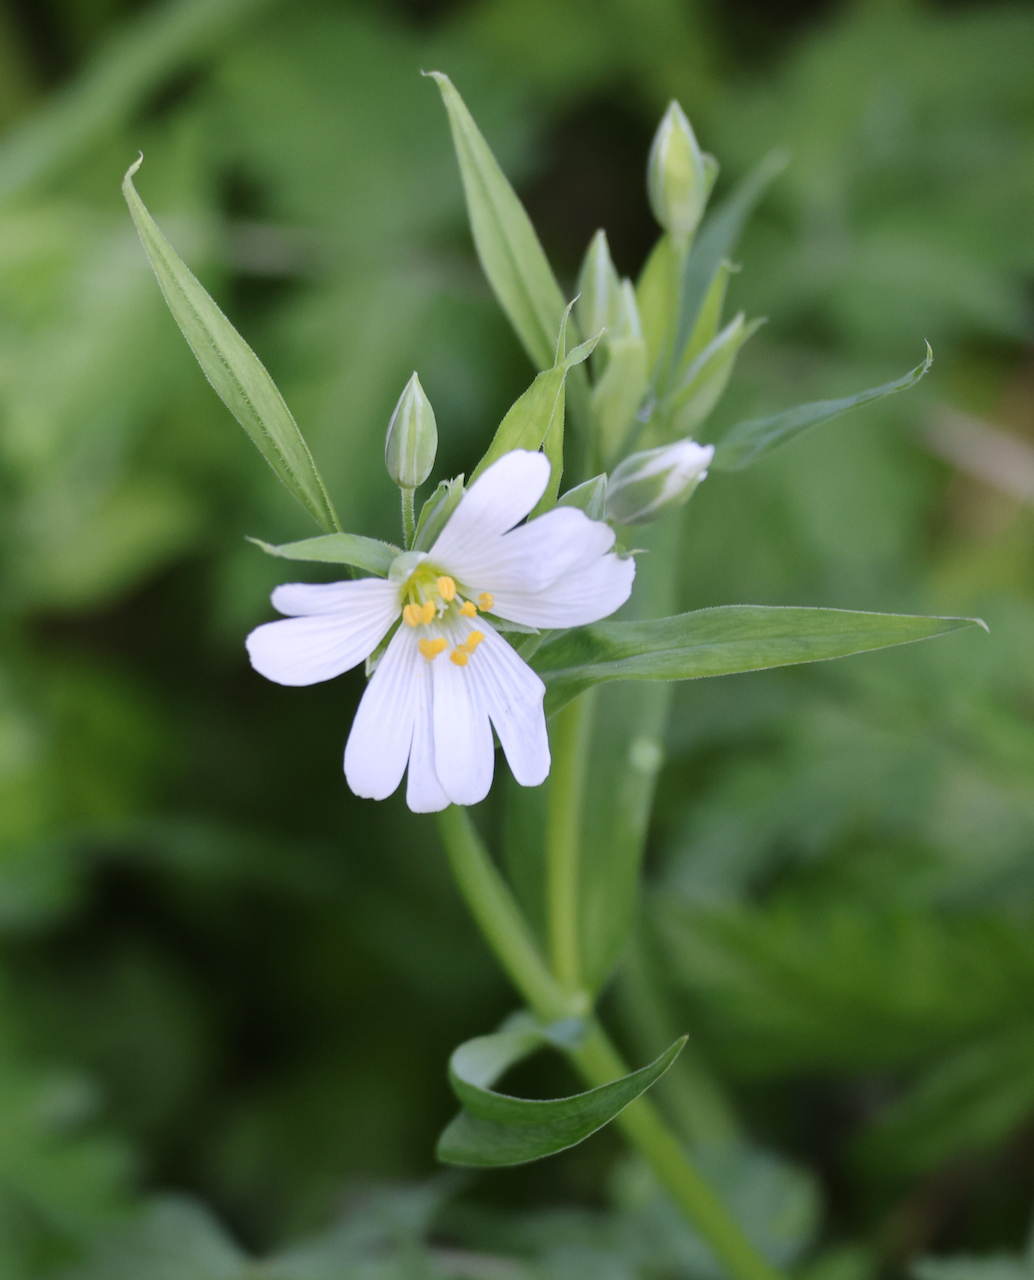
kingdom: Plantae
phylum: Tracheophyta
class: Magnoliopsida
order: Caryophyllales
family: Caryophyllaceae
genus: Rabelera
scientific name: Rabelera holostea
